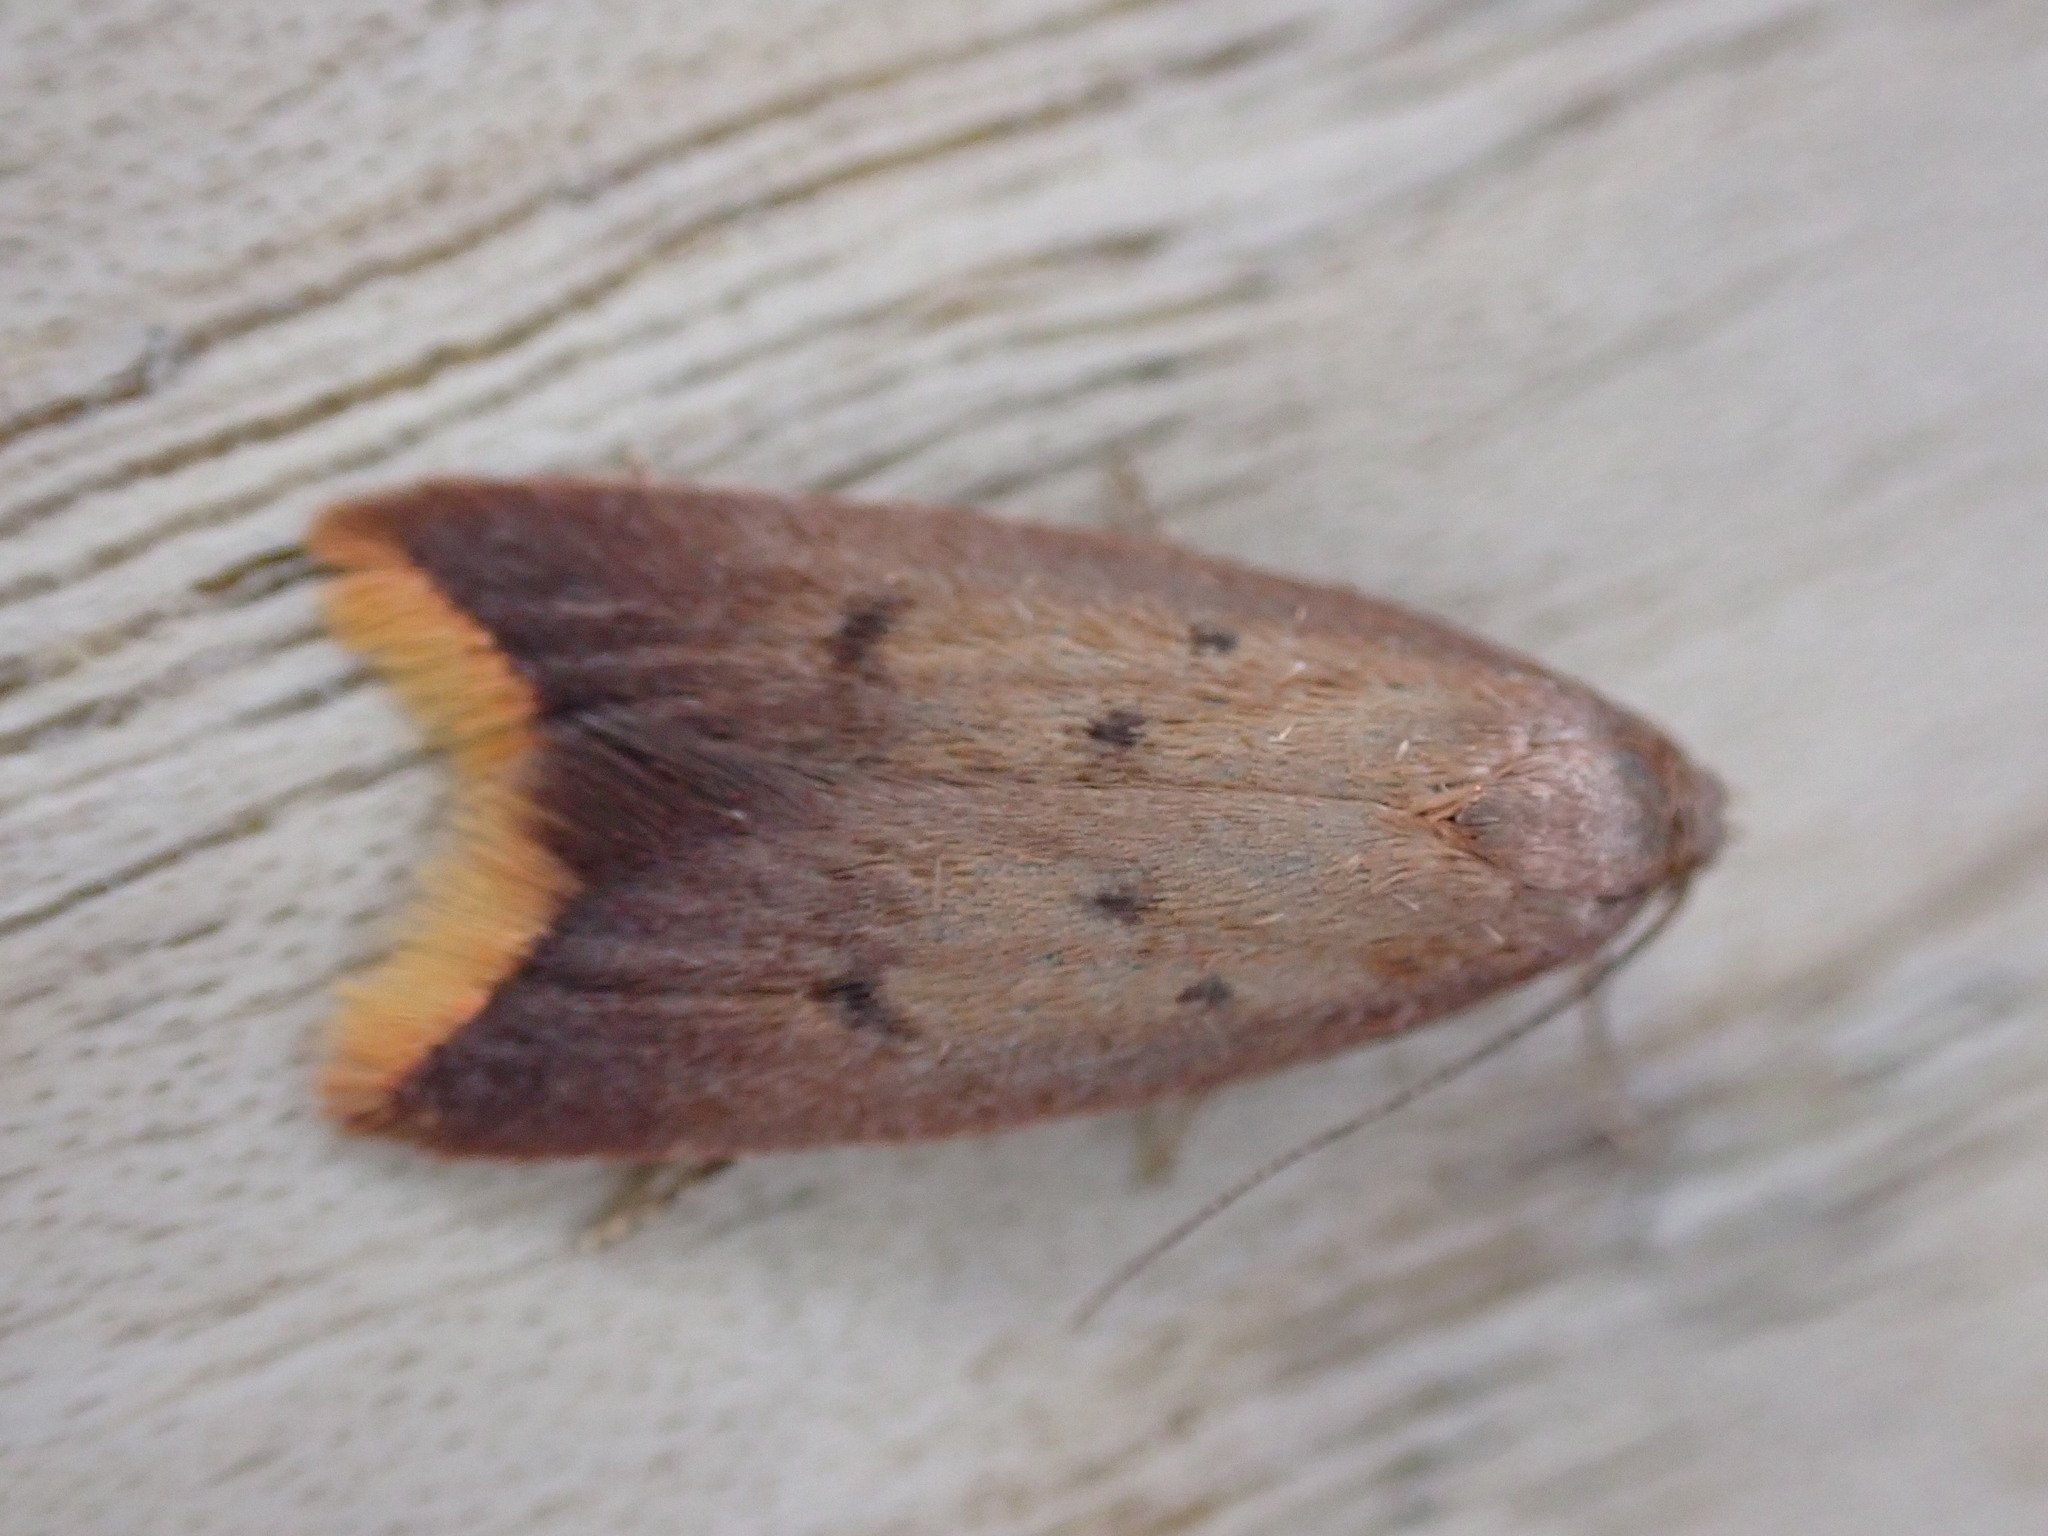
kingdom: Animalia
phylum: Arthropoda
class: Insecta
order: Lepidoptera
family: Oecophoridae
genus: Tachystola
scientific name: Tachystola acroxantha
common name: Ruddy streak
